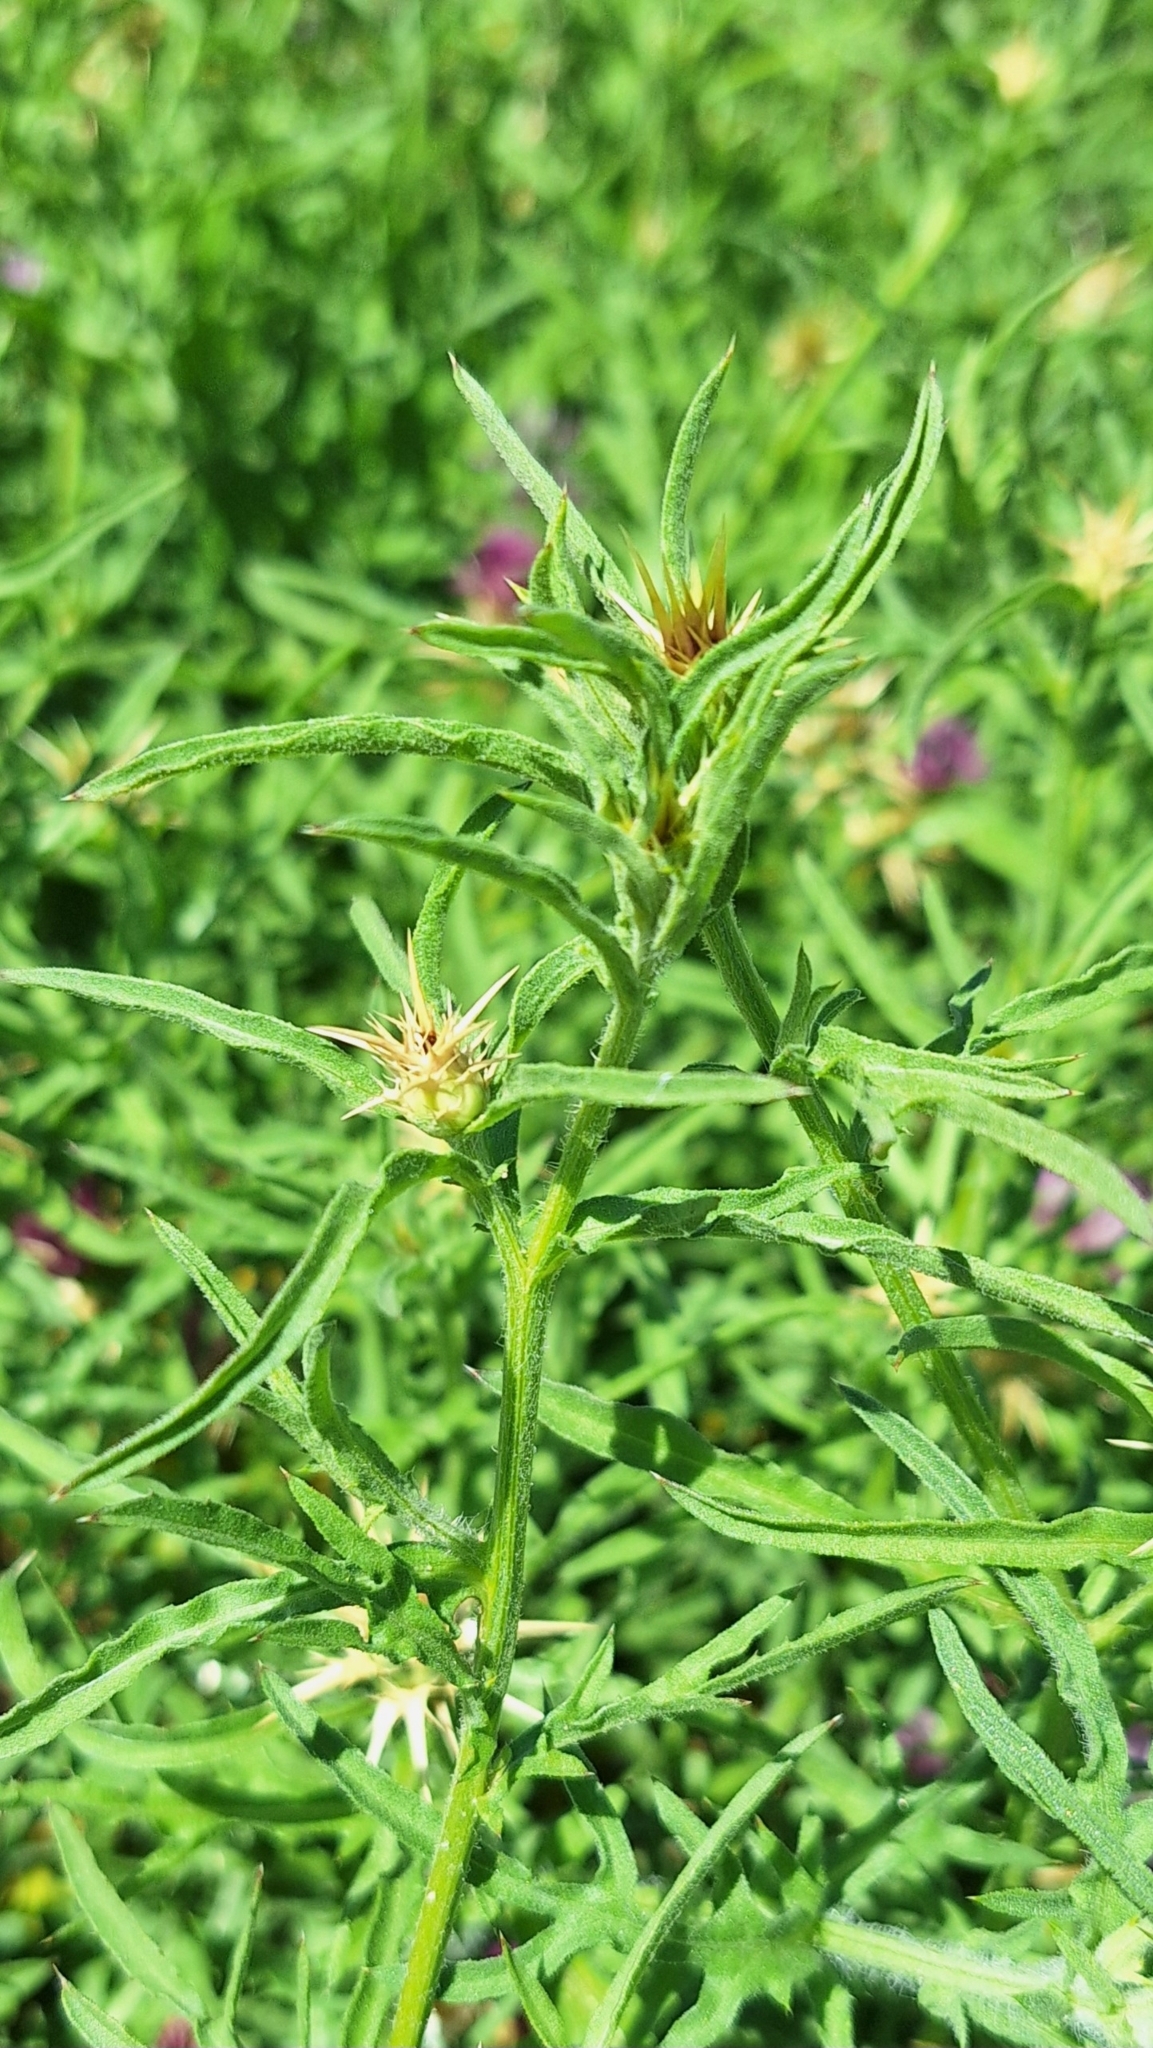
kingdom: Plantae
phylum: Tracheophyta
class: Magnoliopsida
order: Asterales
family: Asteraceae
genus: Centaurea
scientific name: Centaurea calcitrapa
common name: Red star-thistle
